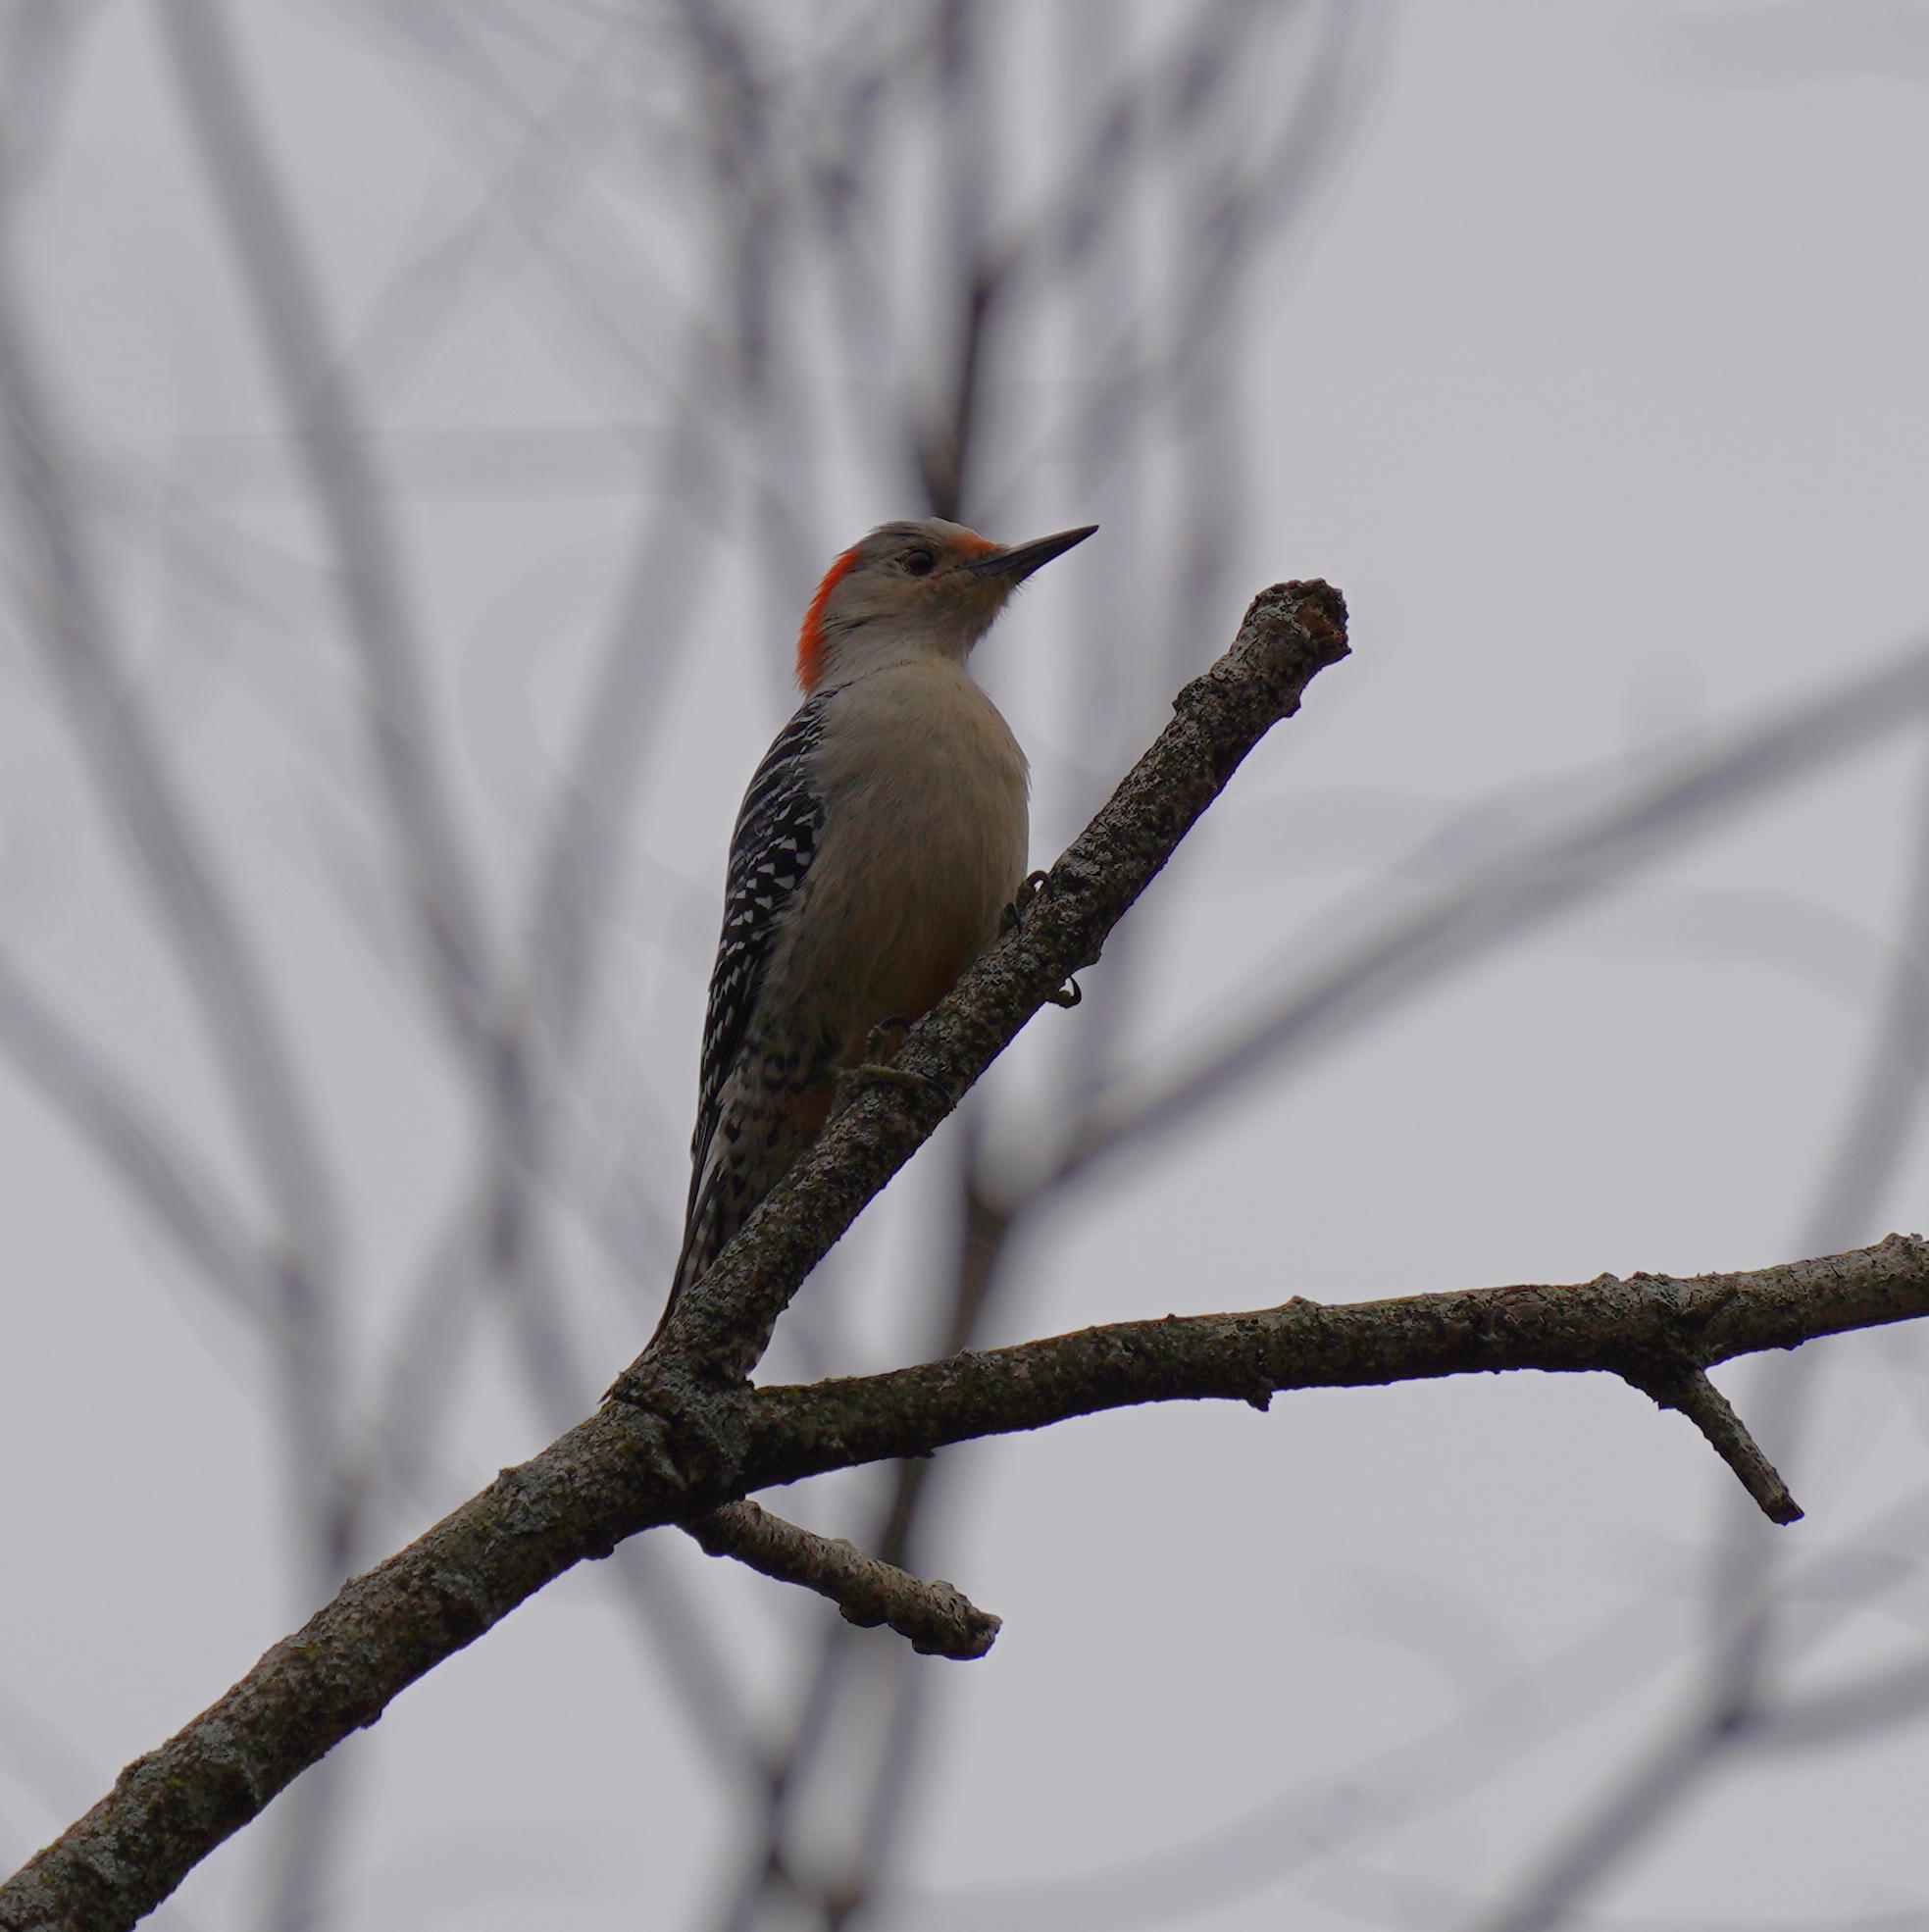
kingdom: Animalia
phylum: Chordata
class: Aves
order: Piciformes
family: Picidae
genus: Melanerpes
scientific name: Melanerpes carolinus
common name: Red-bellied woodpecker
